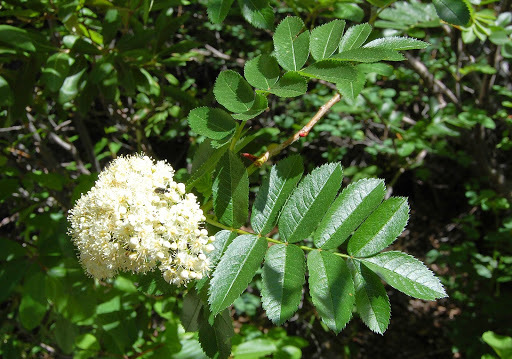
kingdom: Plantae
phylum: Tracheophyta
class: Magnoliopsida
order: Dipsacales
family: Viburnaceae
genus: Sambucus
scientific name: Sambucus racemosa
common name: Red-berried elder
